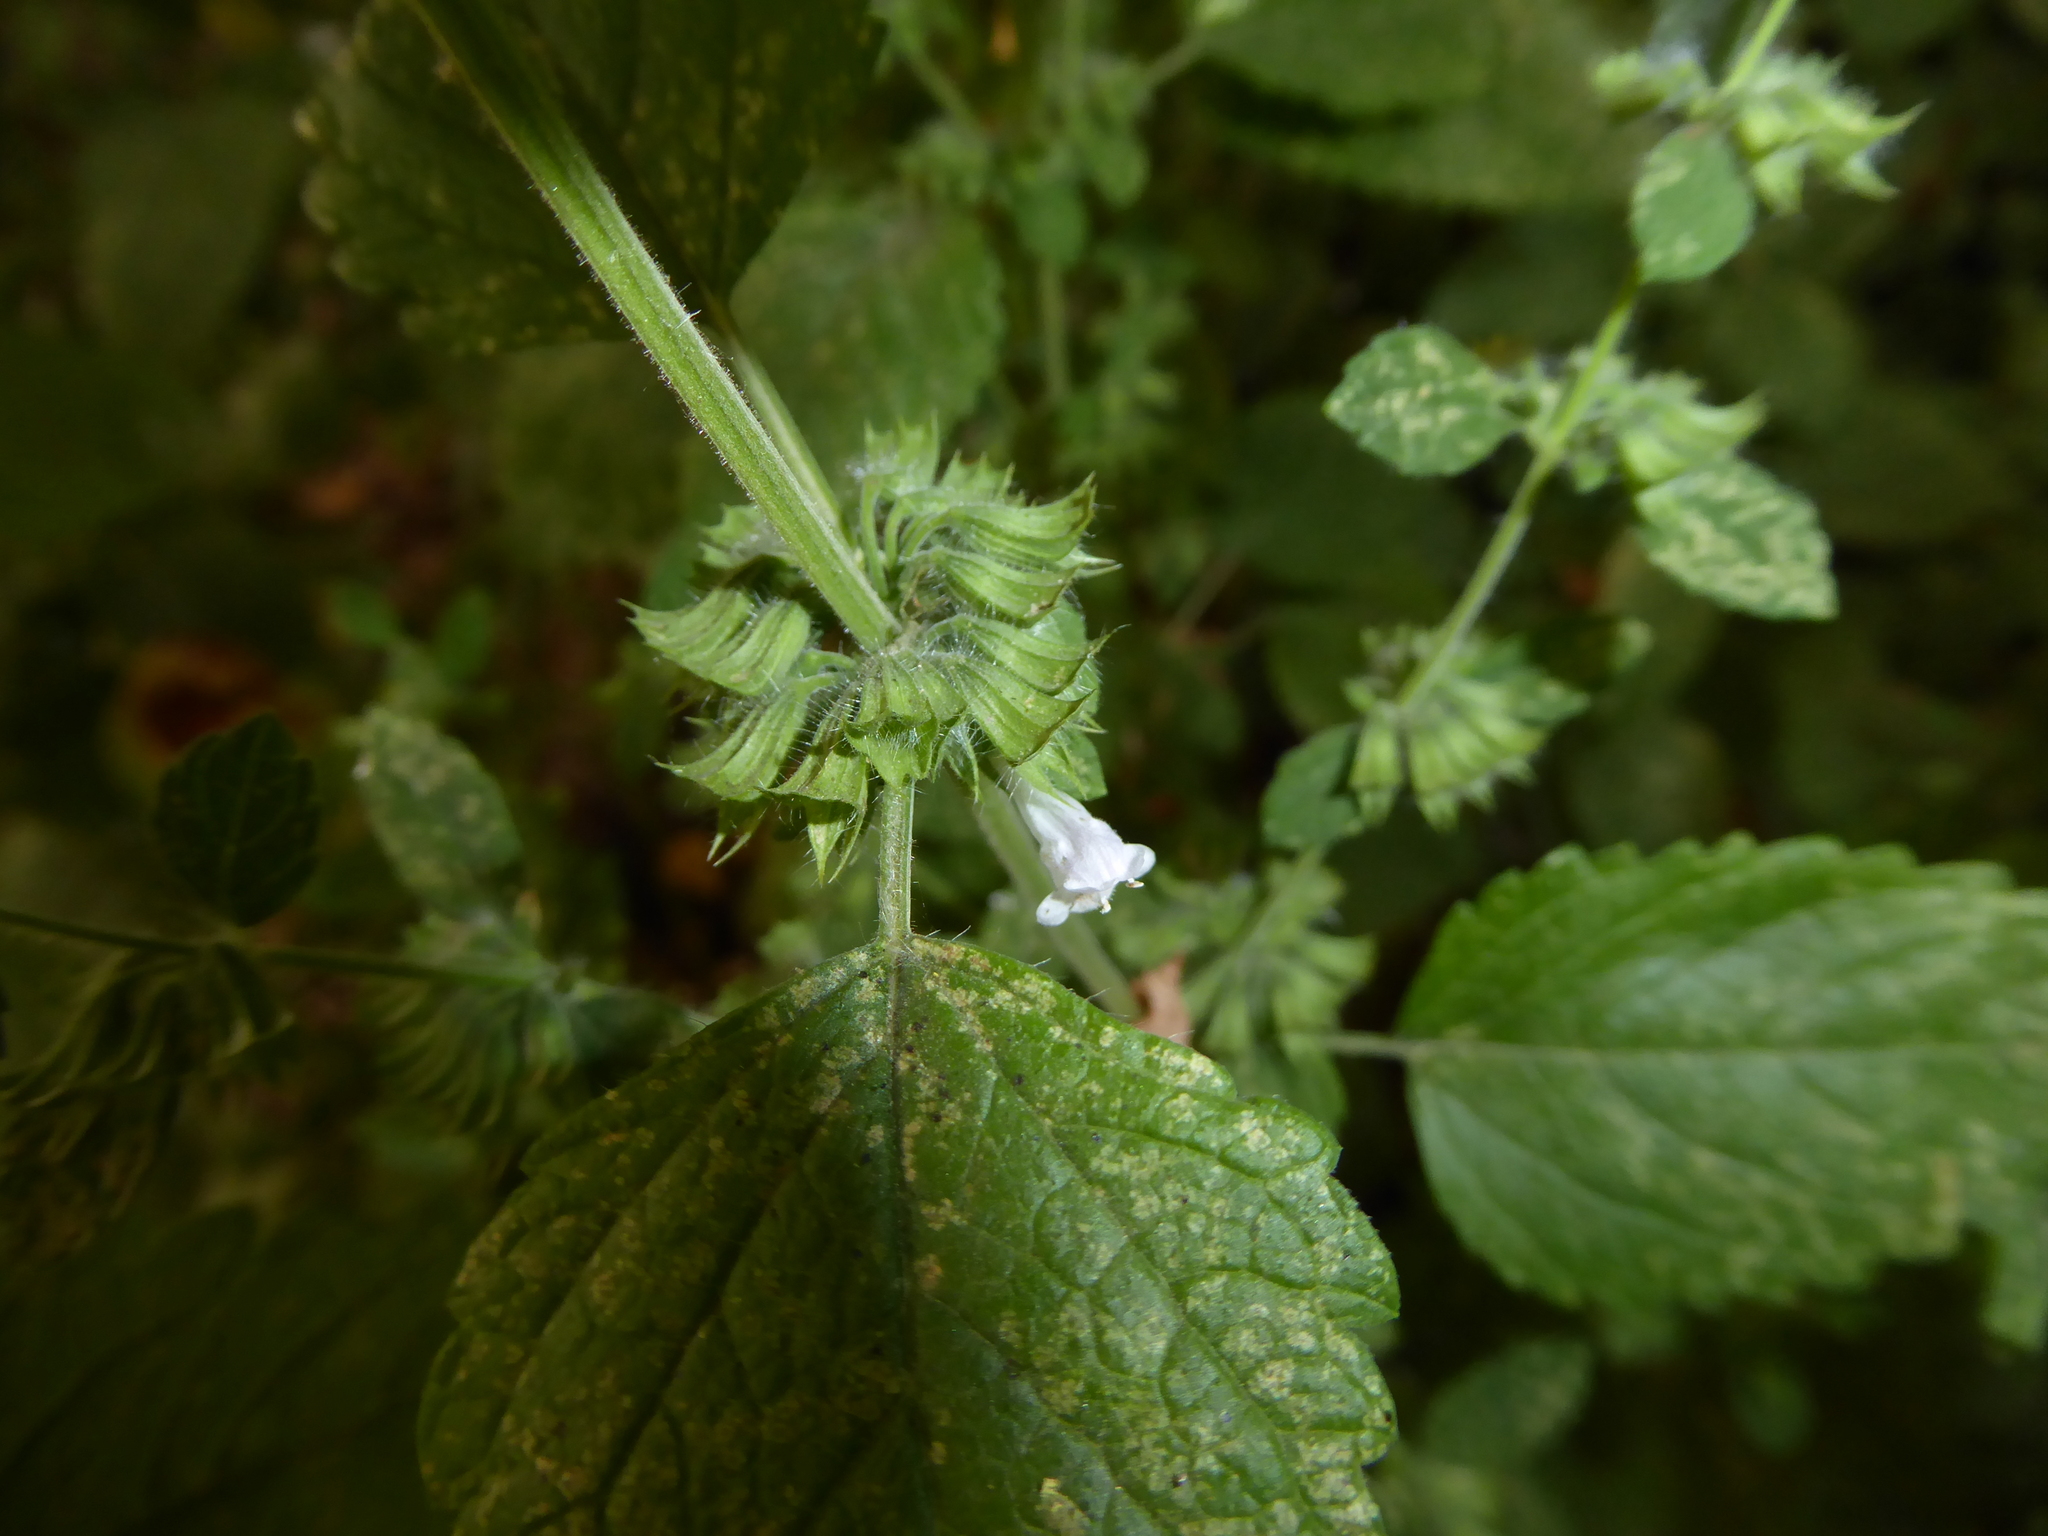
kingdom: Plantae
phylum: Tracheophyta
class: Magnoliopsida
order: Lamiales
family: Lamiaceae
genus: Melissa
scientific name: Melissa officinalis
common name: Balm
